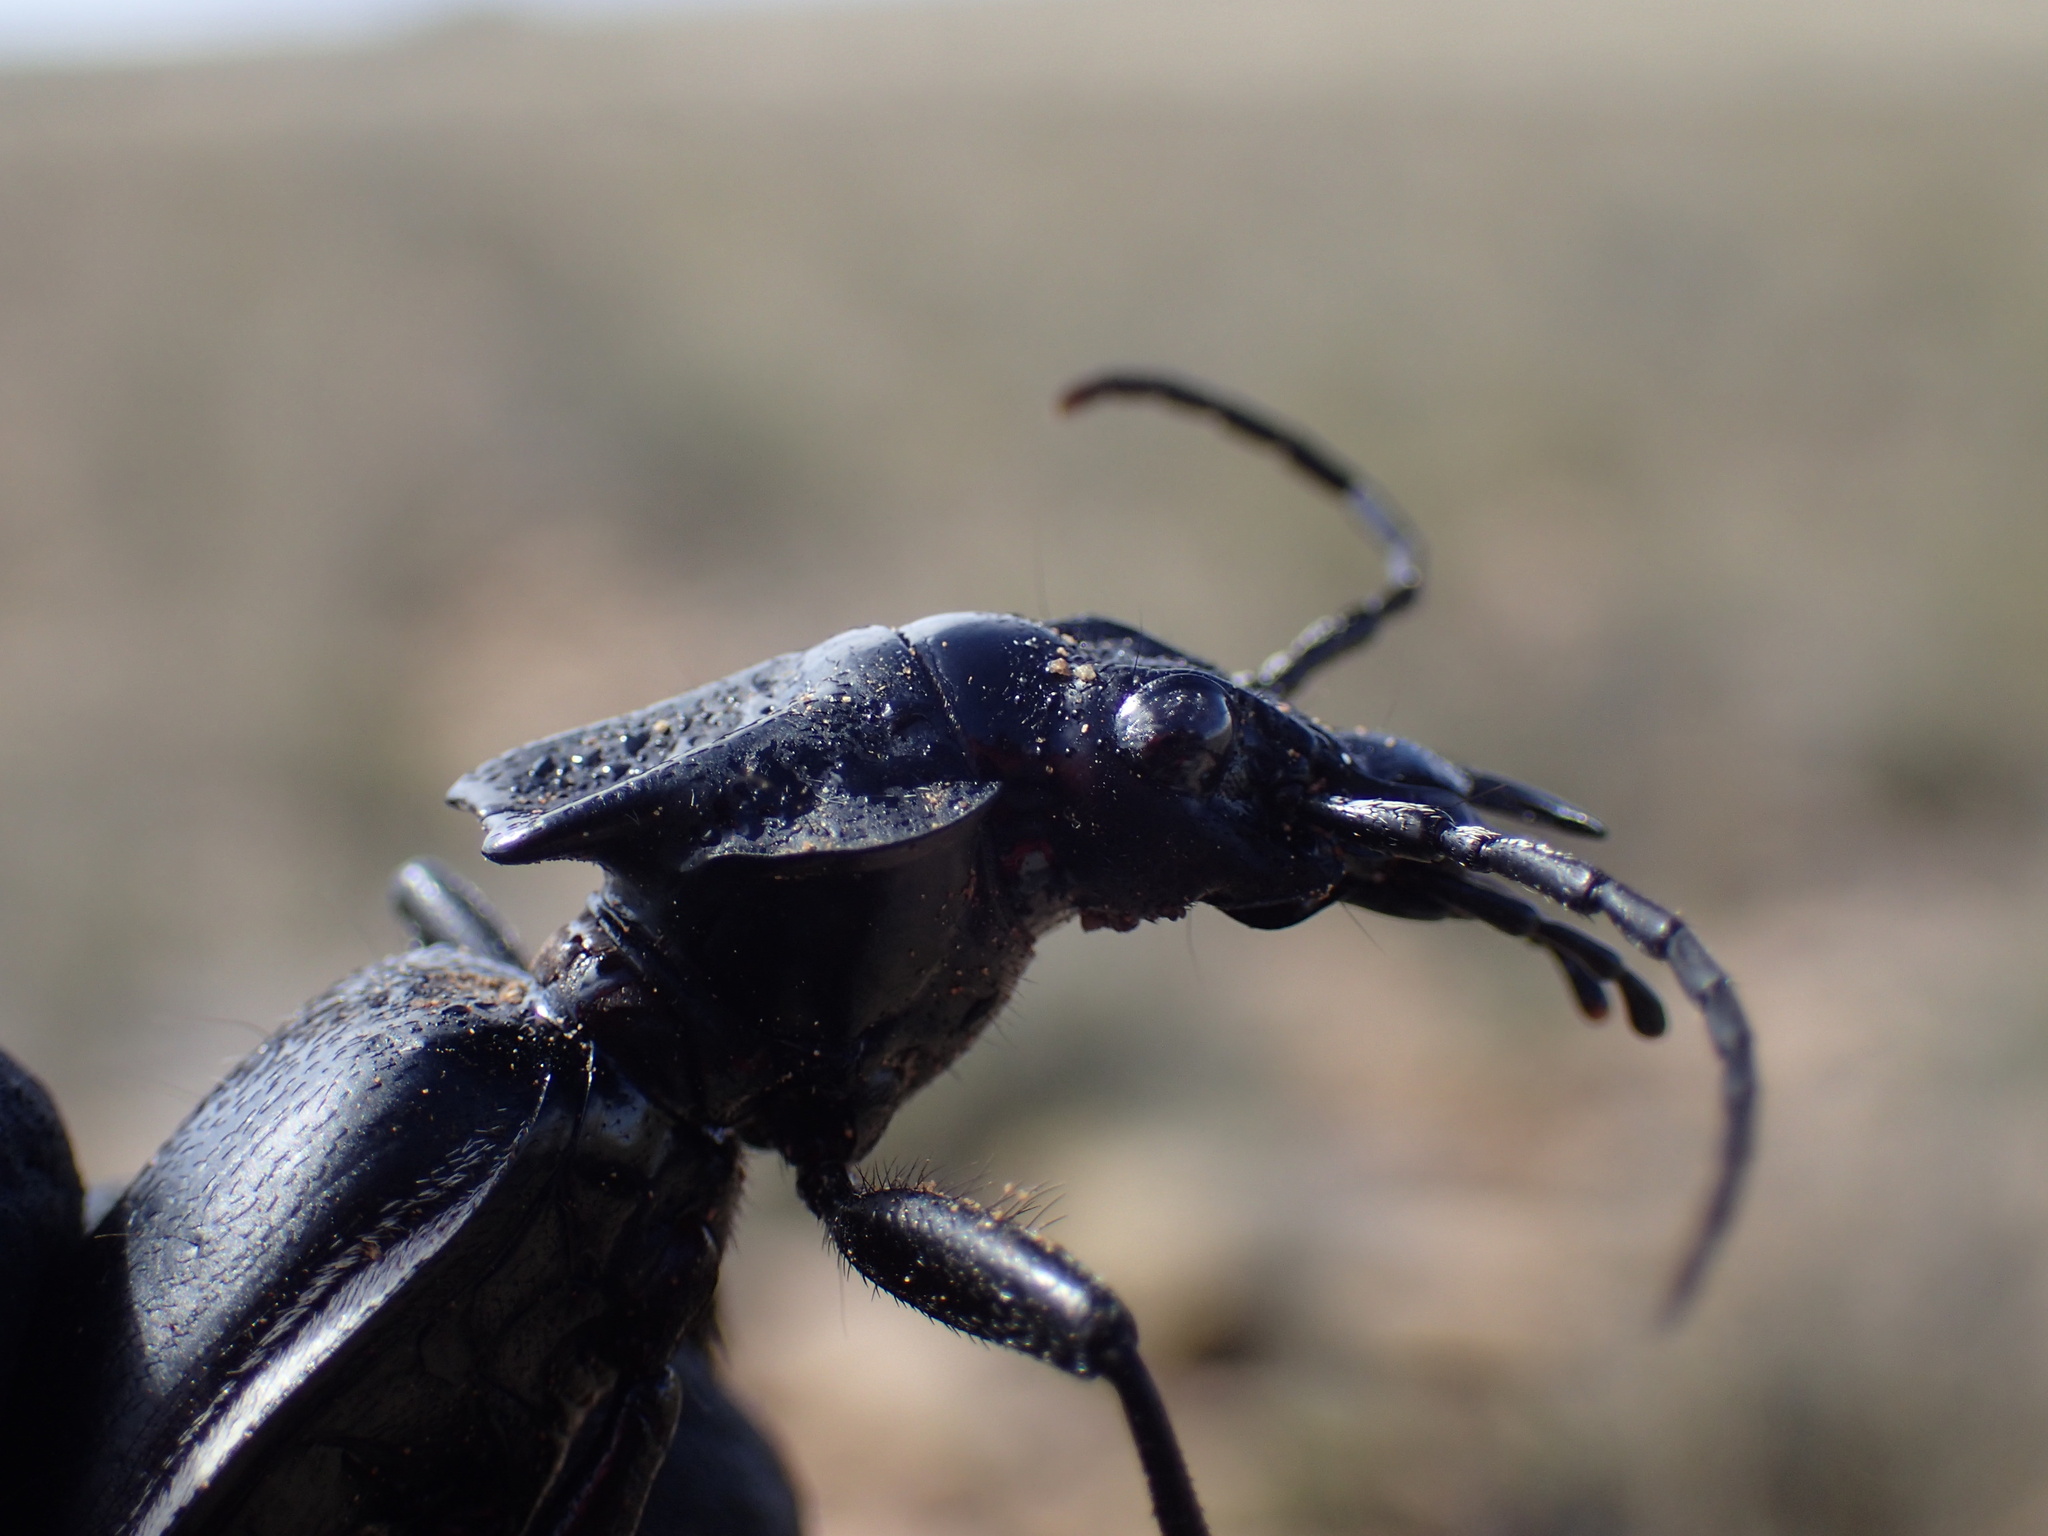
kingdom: Animalia
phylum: Arthropoda
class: Insecta
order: Coleoptera
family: Carabidae
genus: Anthia
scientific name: Anthia cinctipennis
